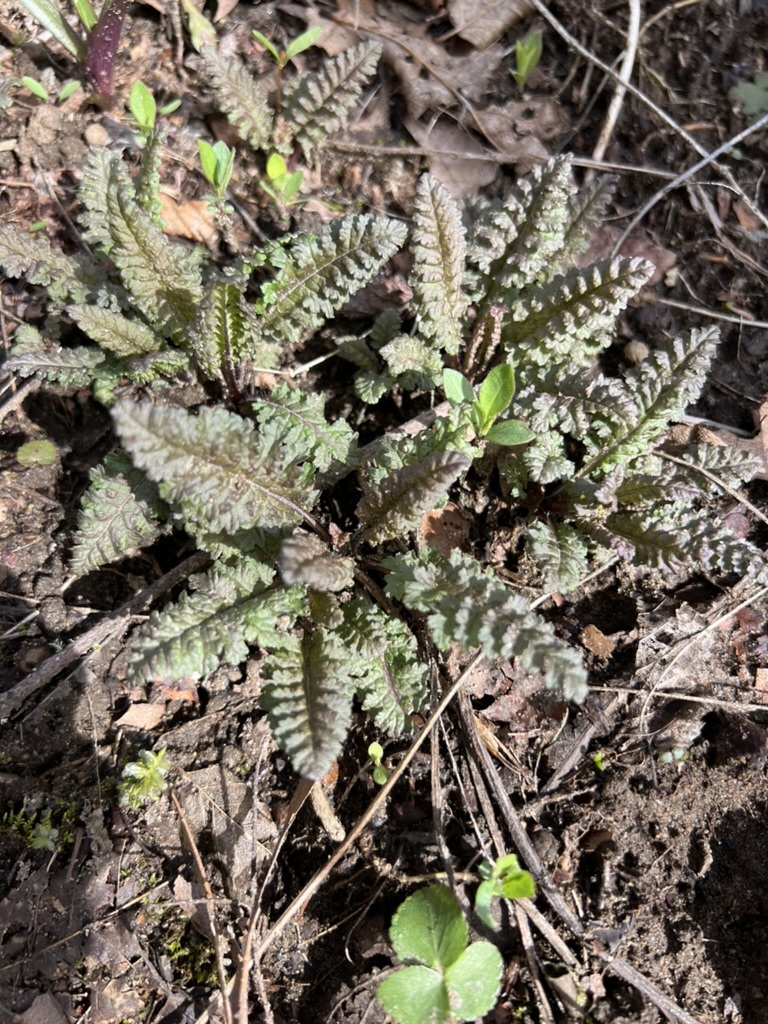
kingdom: Plantae
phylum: Tracheophyta
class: Magnoliopsida
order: Lamiales
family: Orobanchaceae
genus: Pedicularis
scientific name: Pedicularis canadensis
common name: Early lousewort
